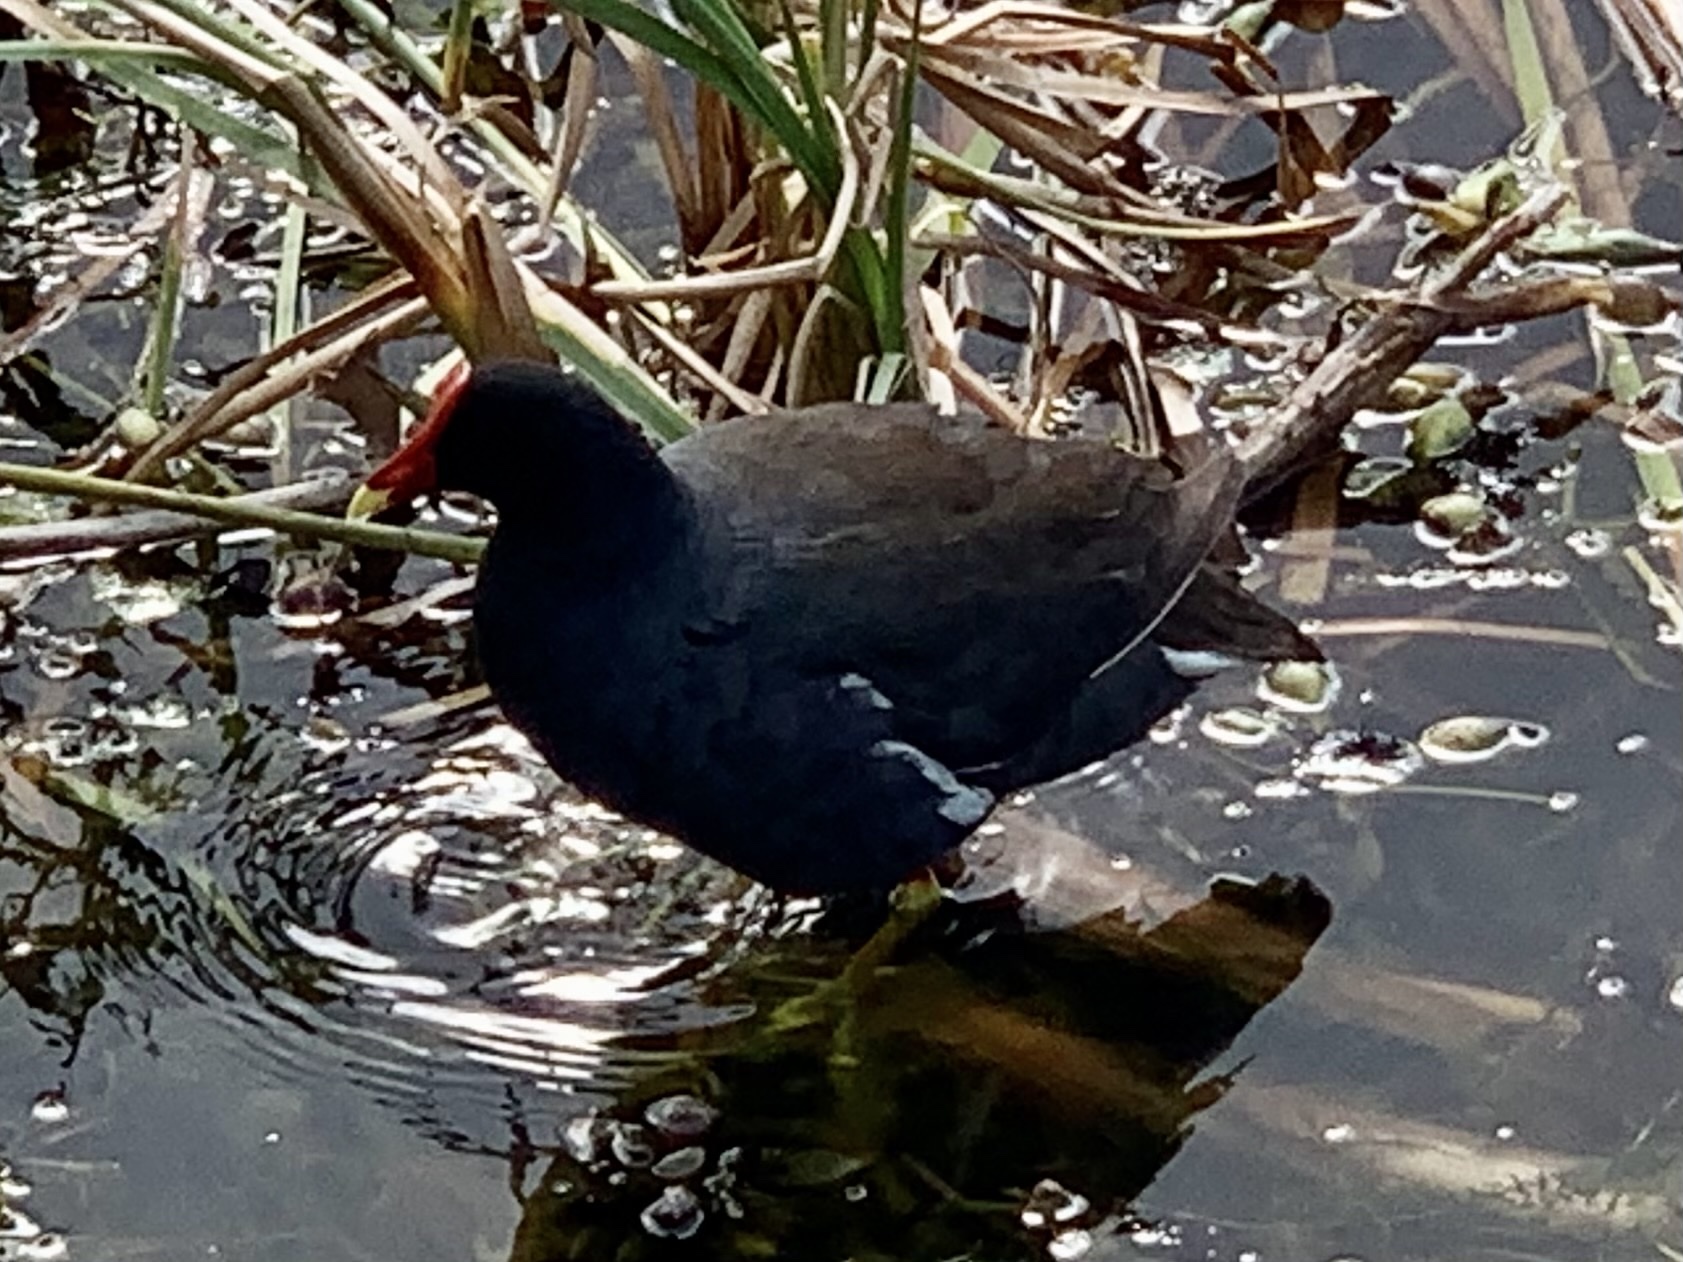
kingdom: Animalia
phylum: Chordata
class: Aves
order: Gruiformes
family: Rallidae
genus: Gallinula
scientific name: Gallinula chloropus
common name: Common moorhen
